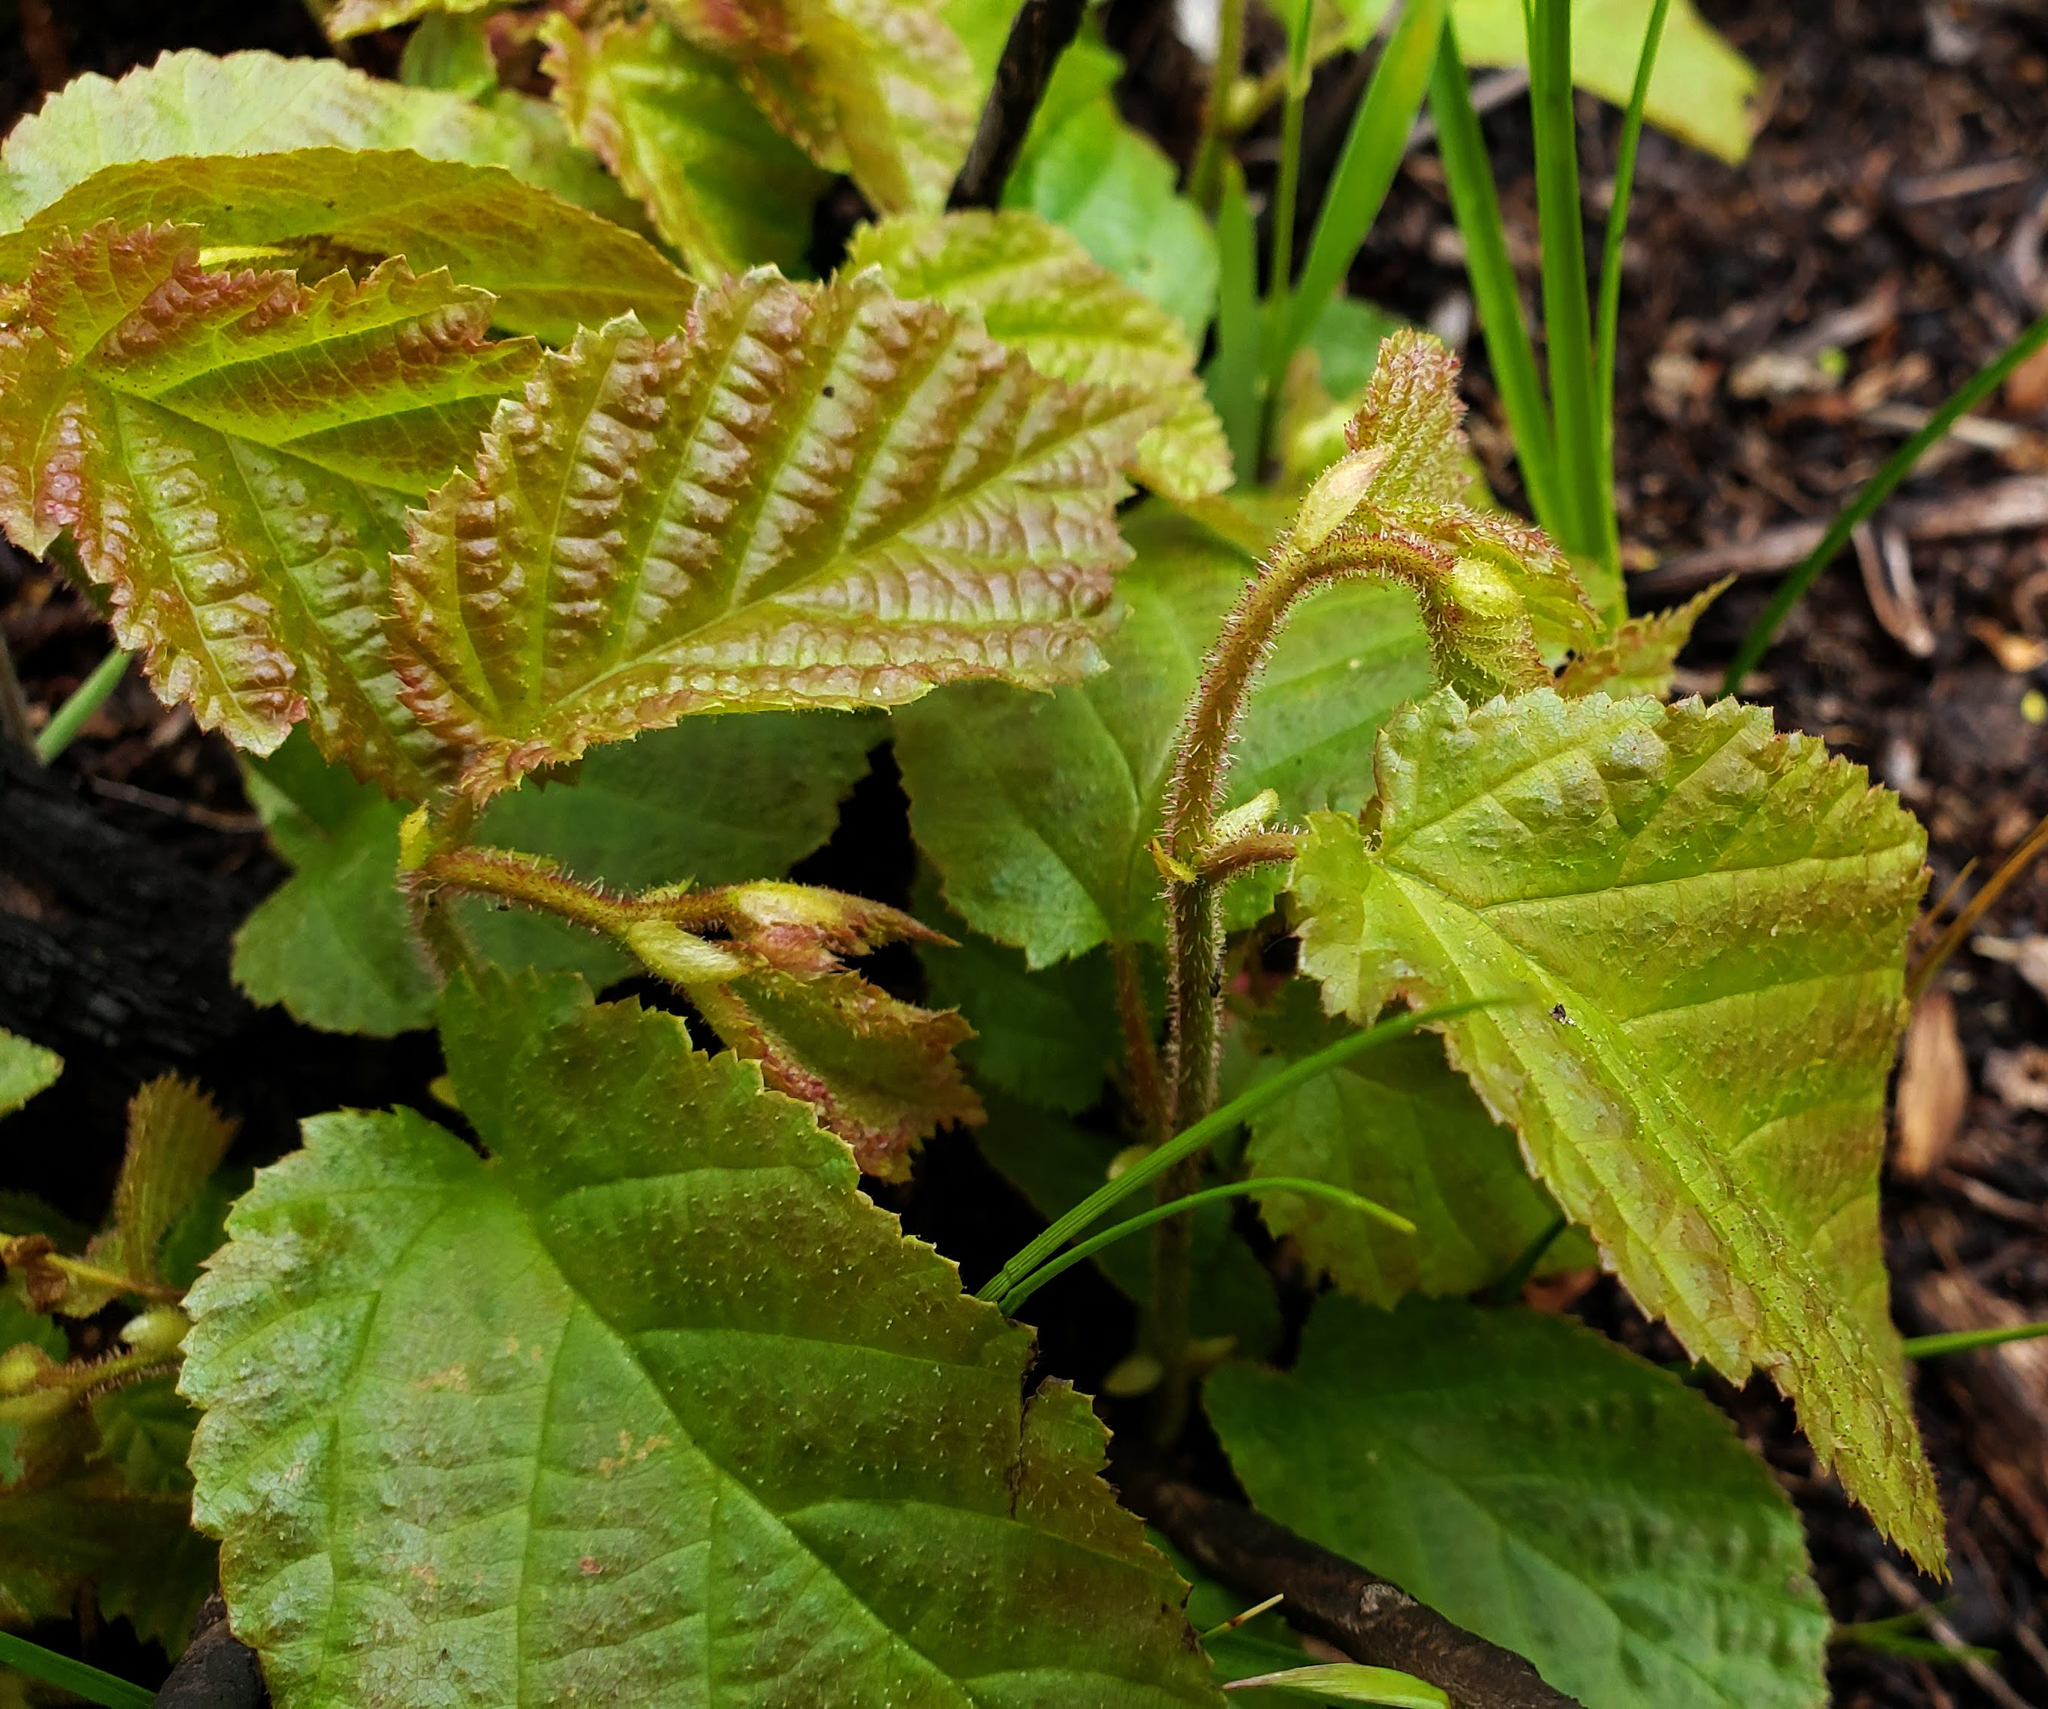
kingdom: Plantae
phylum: Tracheophyta
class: Magnoliopsida
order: Fagales
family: Betulaceae
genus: Corylus
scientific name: Corylus americana
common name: American hazel
